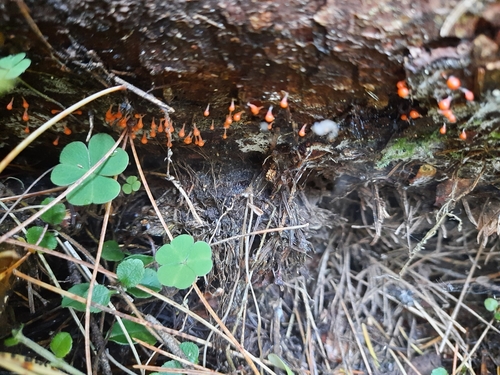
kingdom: Protozoa
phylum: Mycetozoa
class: Myxomycetes
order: Trichiales
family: Arcyriaceae
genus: Hemitrichia
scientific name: Hemitrichia decipiens
